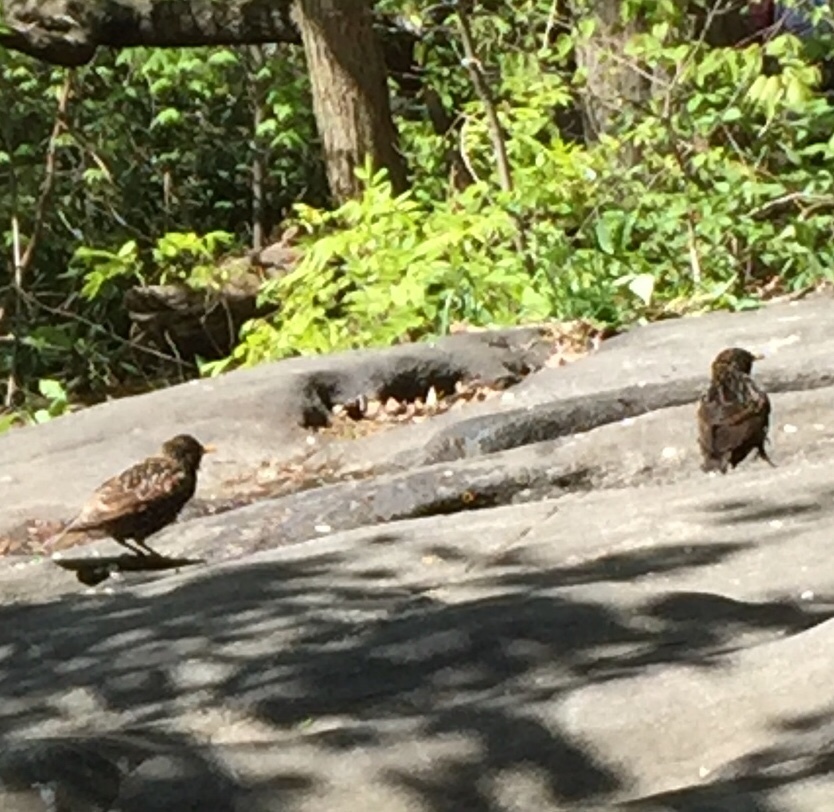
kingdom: Animalia
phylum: Chordata
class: Aves
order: Passeriformes
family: Sturnidae
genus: Sturnus
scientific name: Sturnus vulgaris
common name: Common starling
